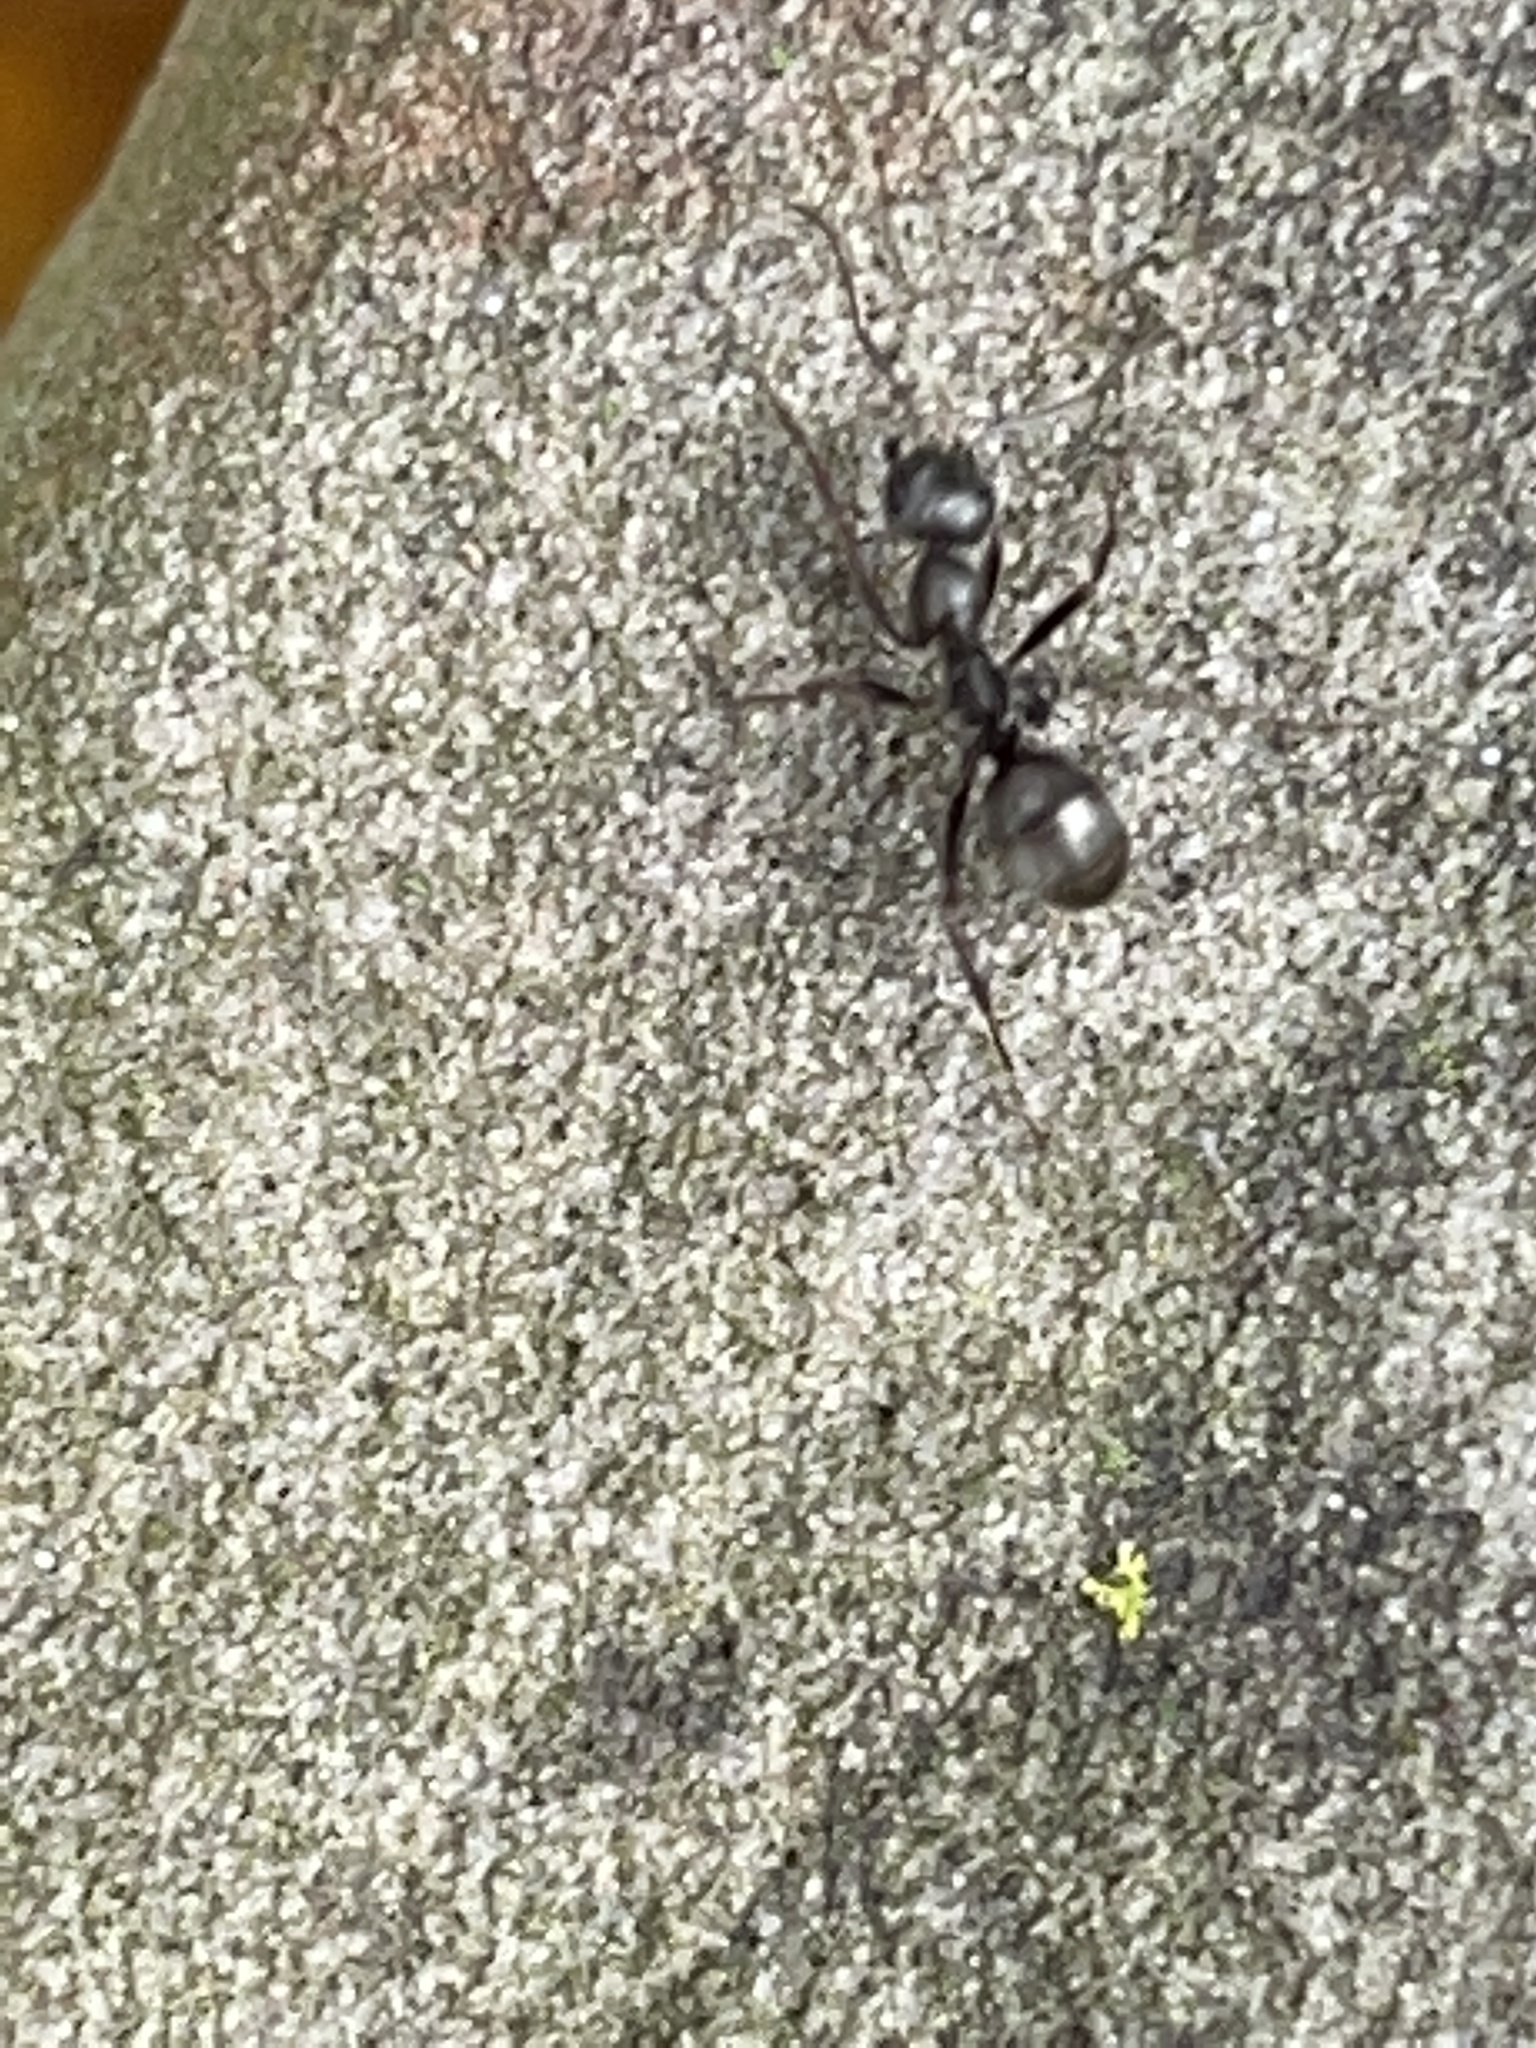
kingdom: Animalia
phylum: Arthropoda
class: Insecta
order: Hymenoptera
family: Formicidae
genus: Formica
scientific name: Formica subsericea
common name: Silky field ant
